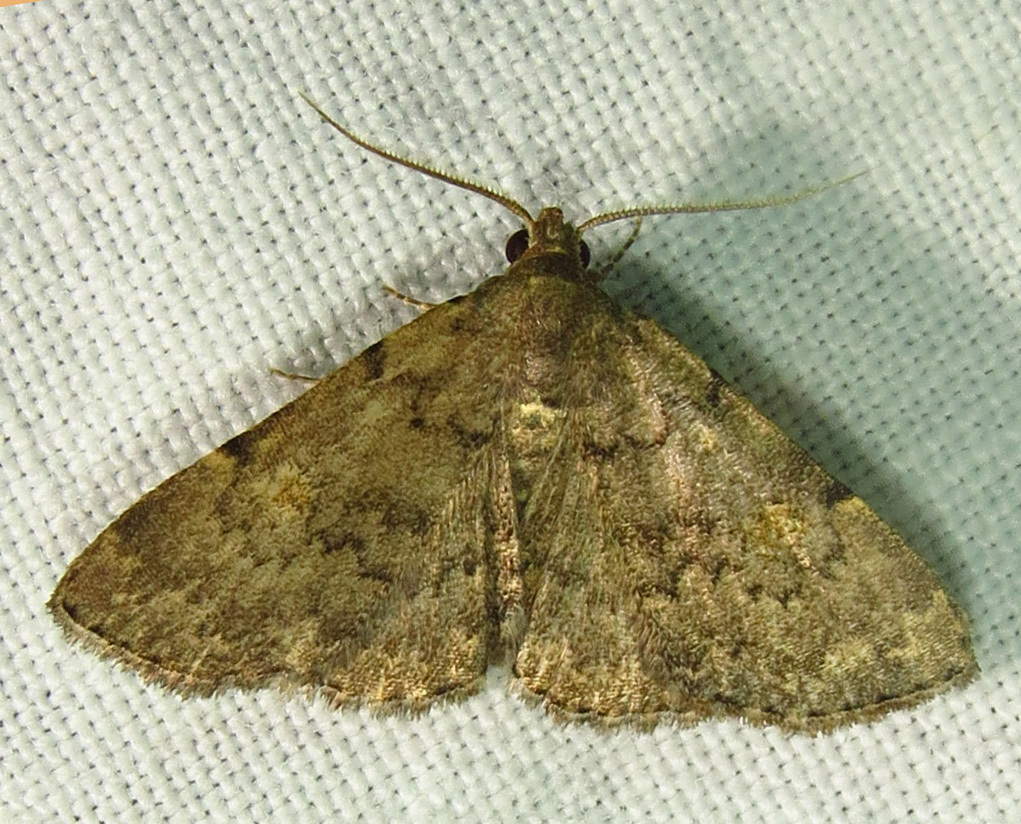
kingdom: Animalia
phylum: Arthropoda
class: Insecta
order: Lepidoptera
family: Erebidae
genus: Idia
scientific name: Idia aemula
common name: Common idia moth
